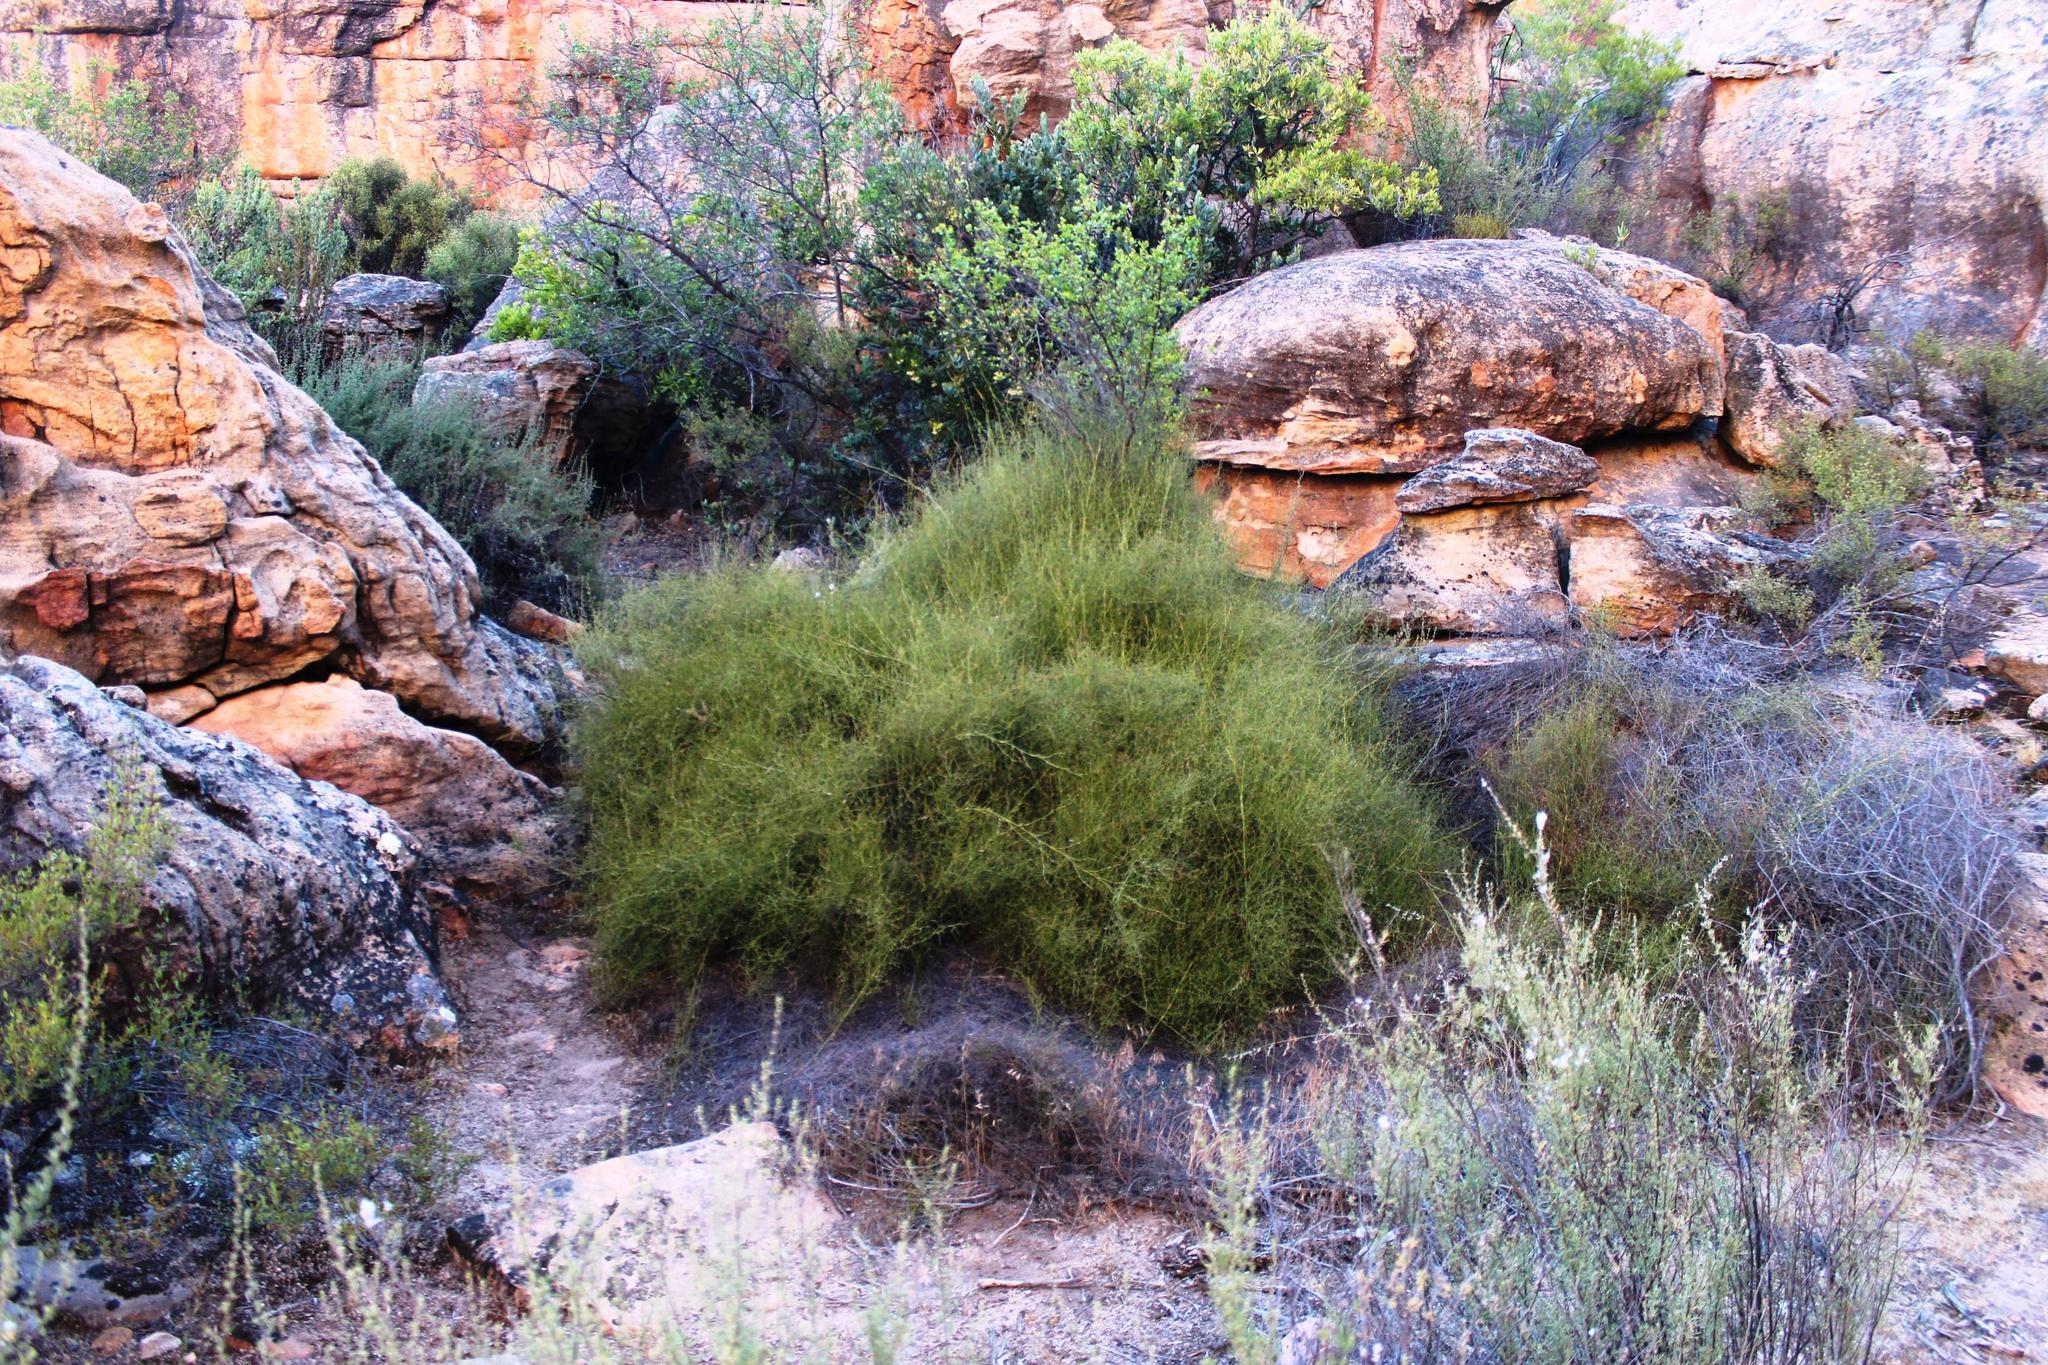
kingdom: Plantae
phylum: Tracheophyta
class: Liliopsida
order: Poales
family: Restionaceae
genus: Restio
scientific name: Restio gaudichaudianus
